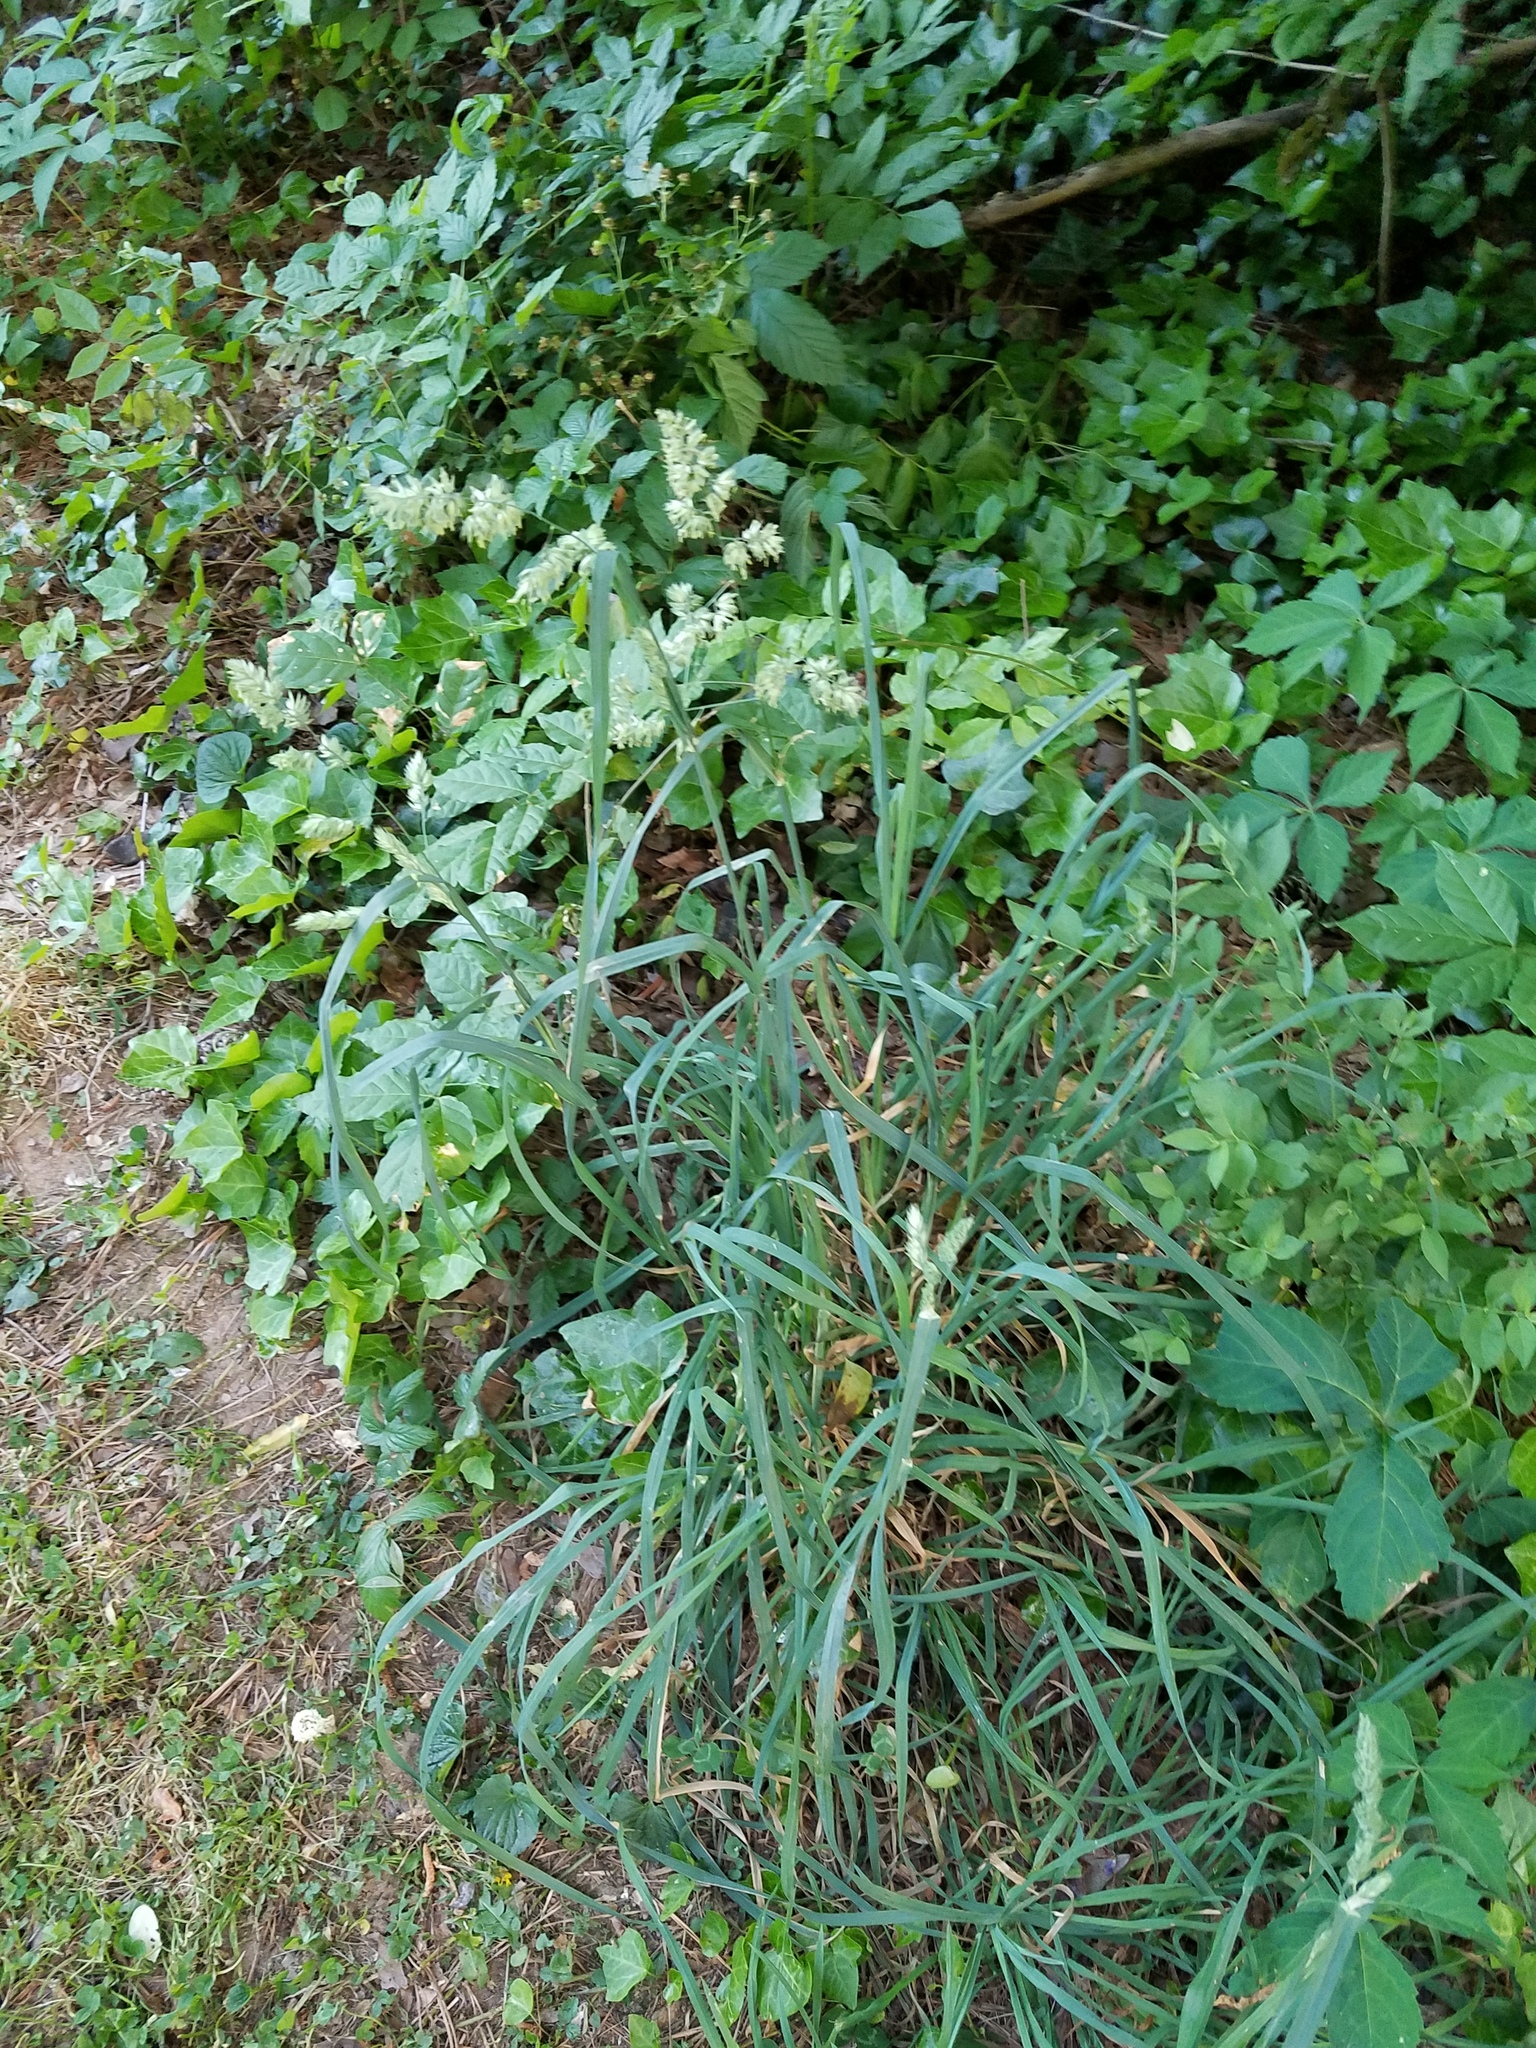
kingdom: Plantae
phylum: Tracheophyta
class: Liliopsida
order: Poales
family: Poaceae
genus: Dactylis
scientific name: Dactylis glomerata
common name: Orchardgrass
